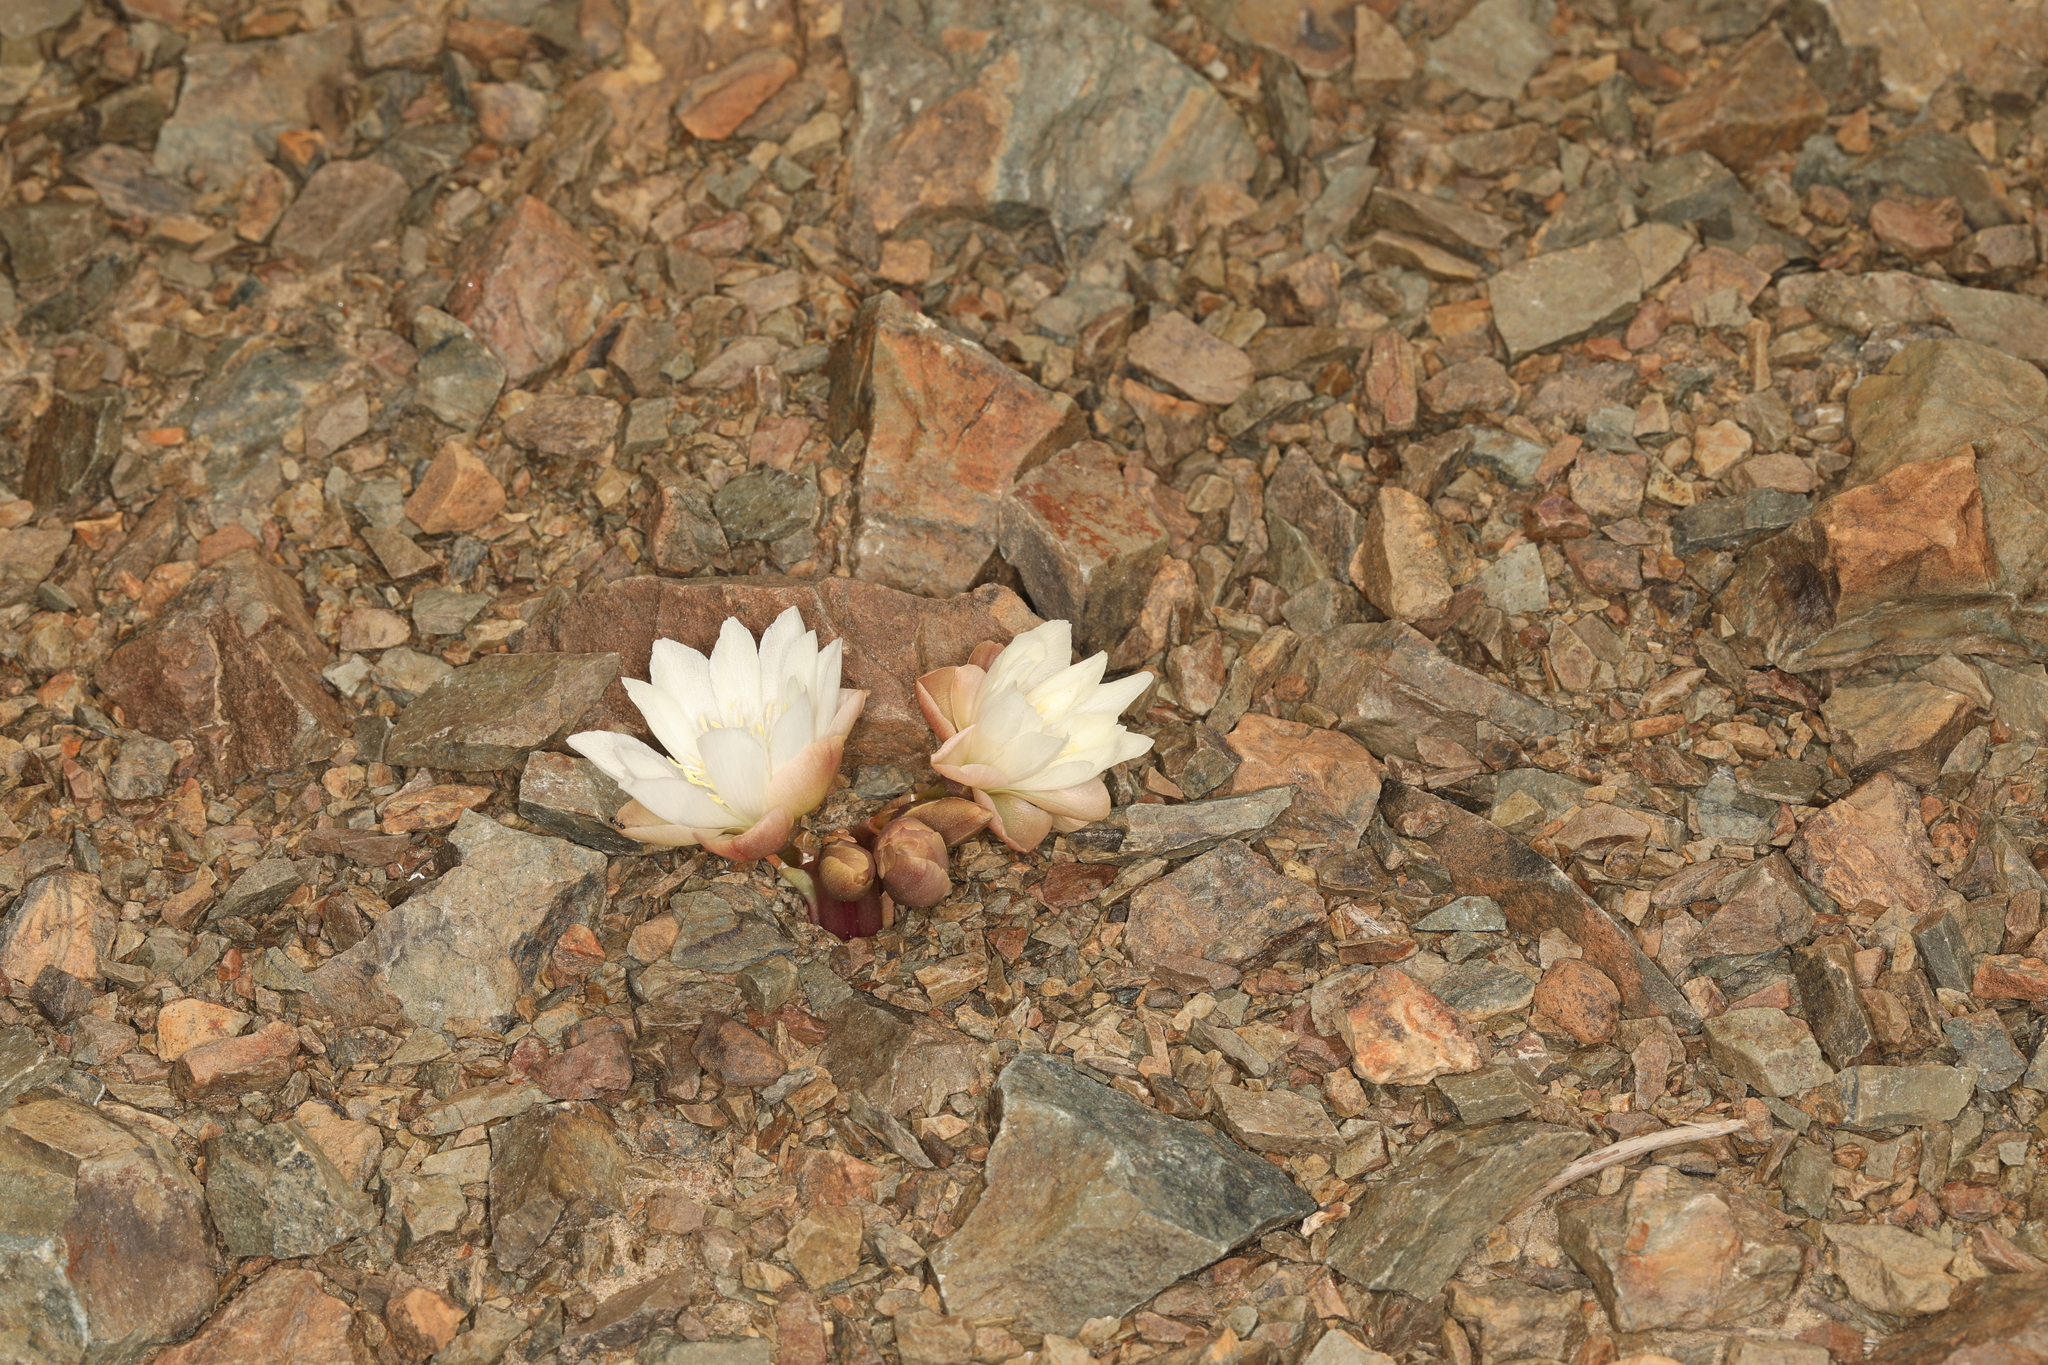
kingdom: Plantae
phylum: Tracheophyta
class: Magnoliopsida
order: Caryophyllales
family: Montiaceae
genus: Lewisia
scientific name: Lewisia rediviva
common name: Bitter-root
